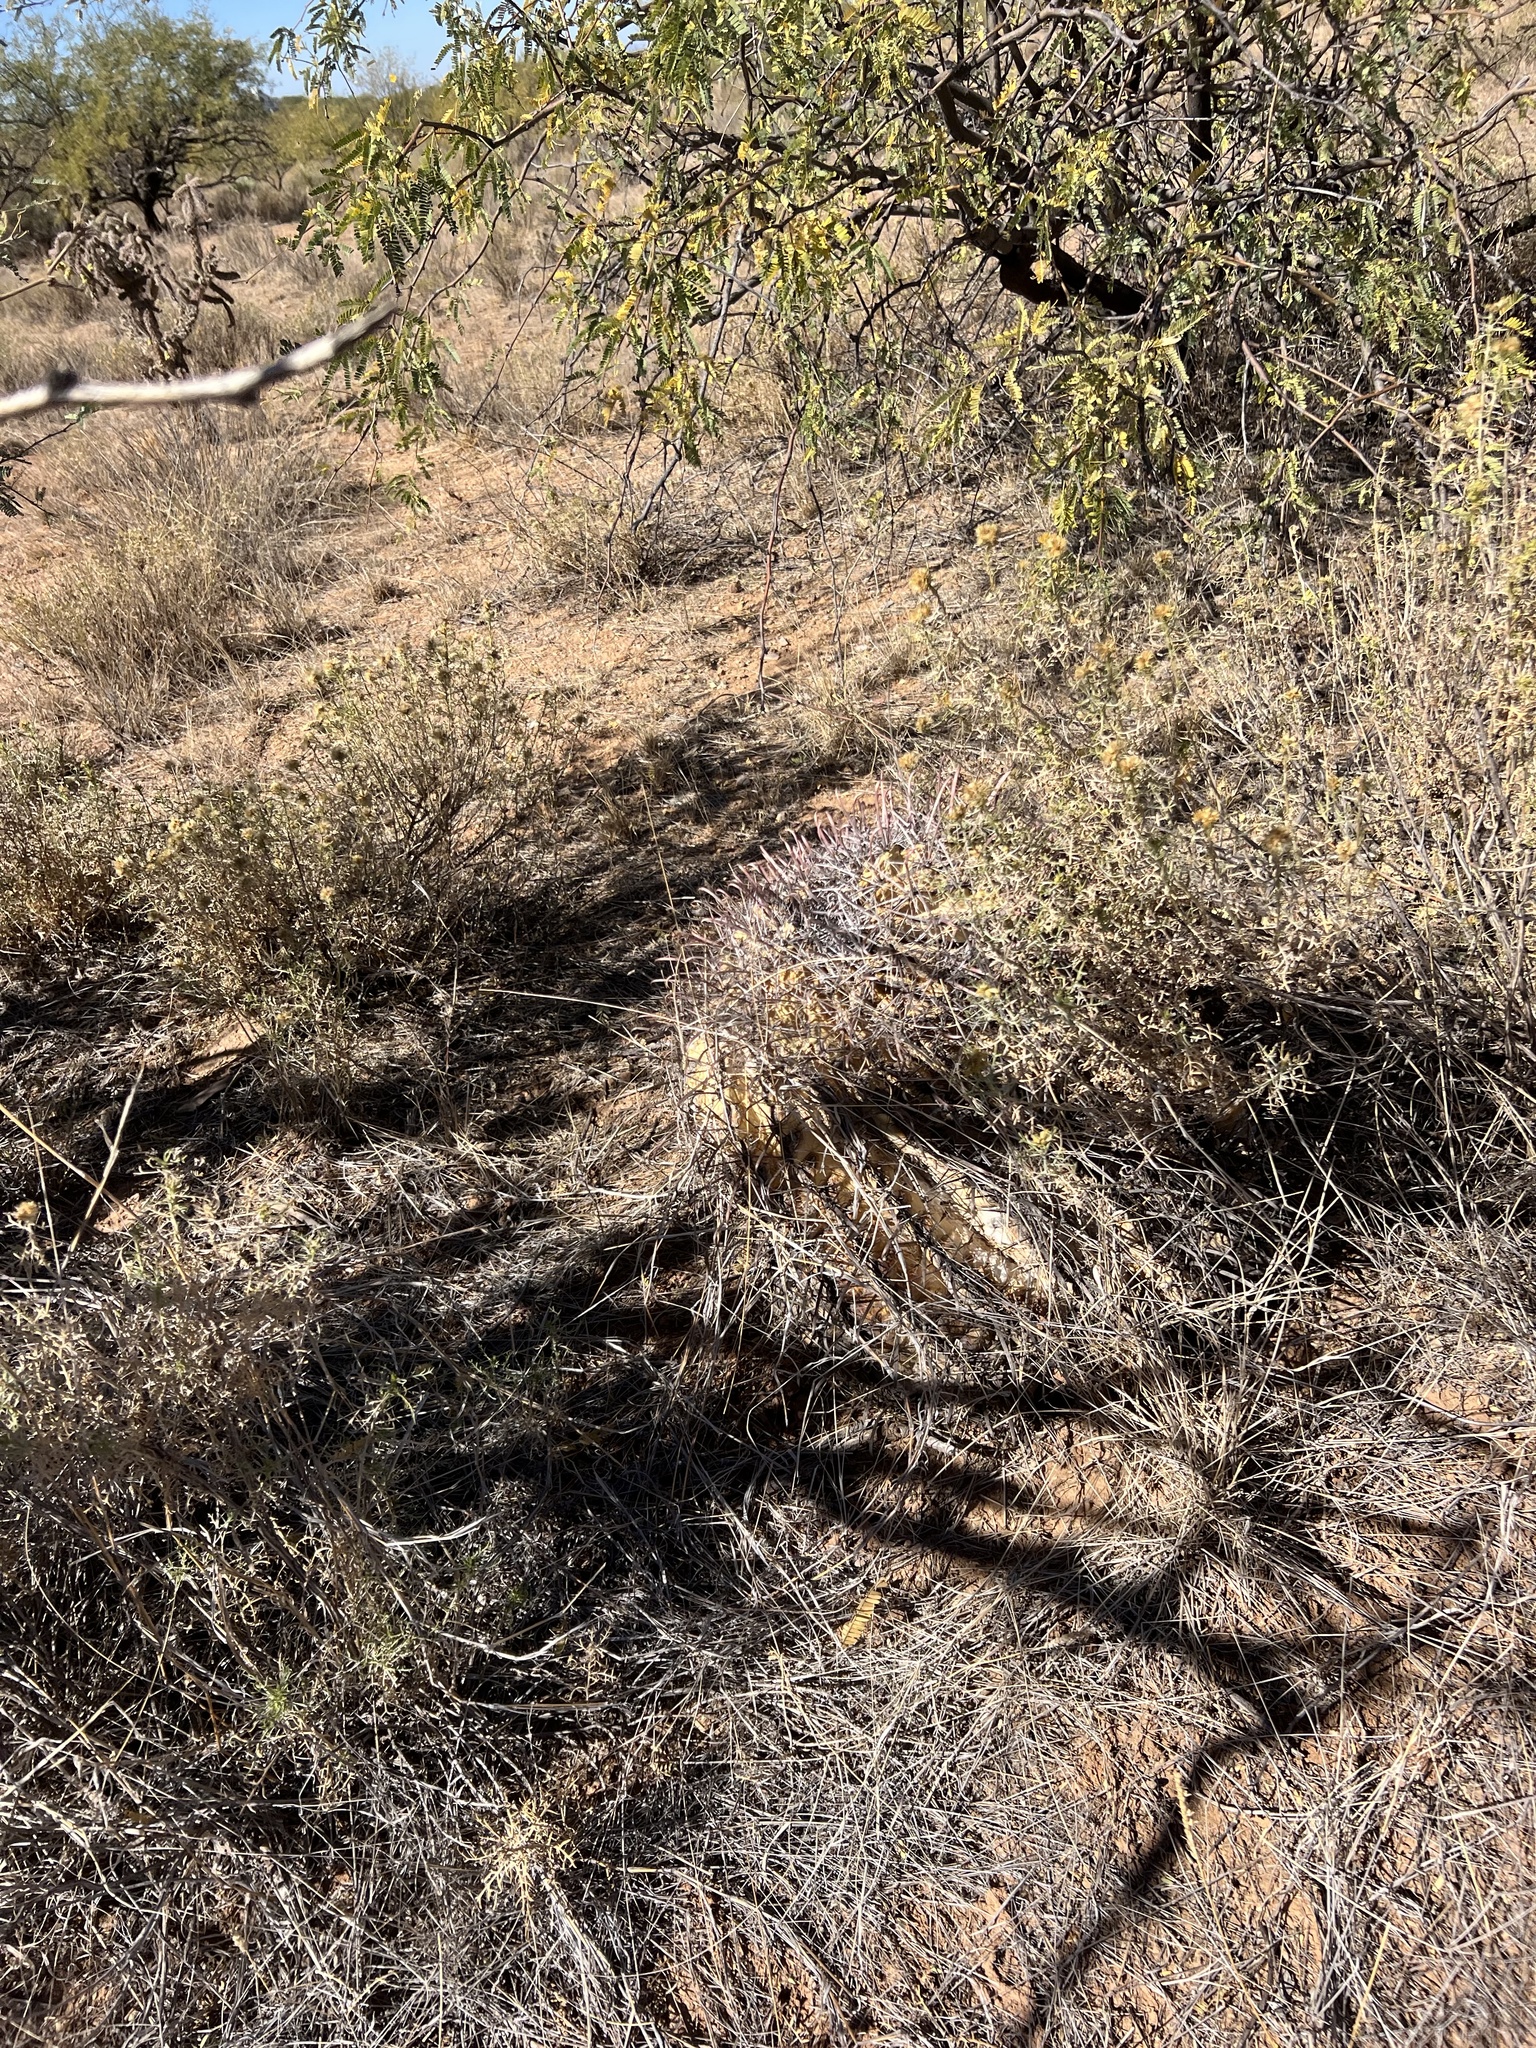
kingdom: Plantae
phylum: Tracheophyta
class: Magnoliopsida
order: Caryophyllales
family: Cactaceae
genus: Ferocactus
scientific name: Ferocactus wislizeni
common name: Candy barrel cactus
